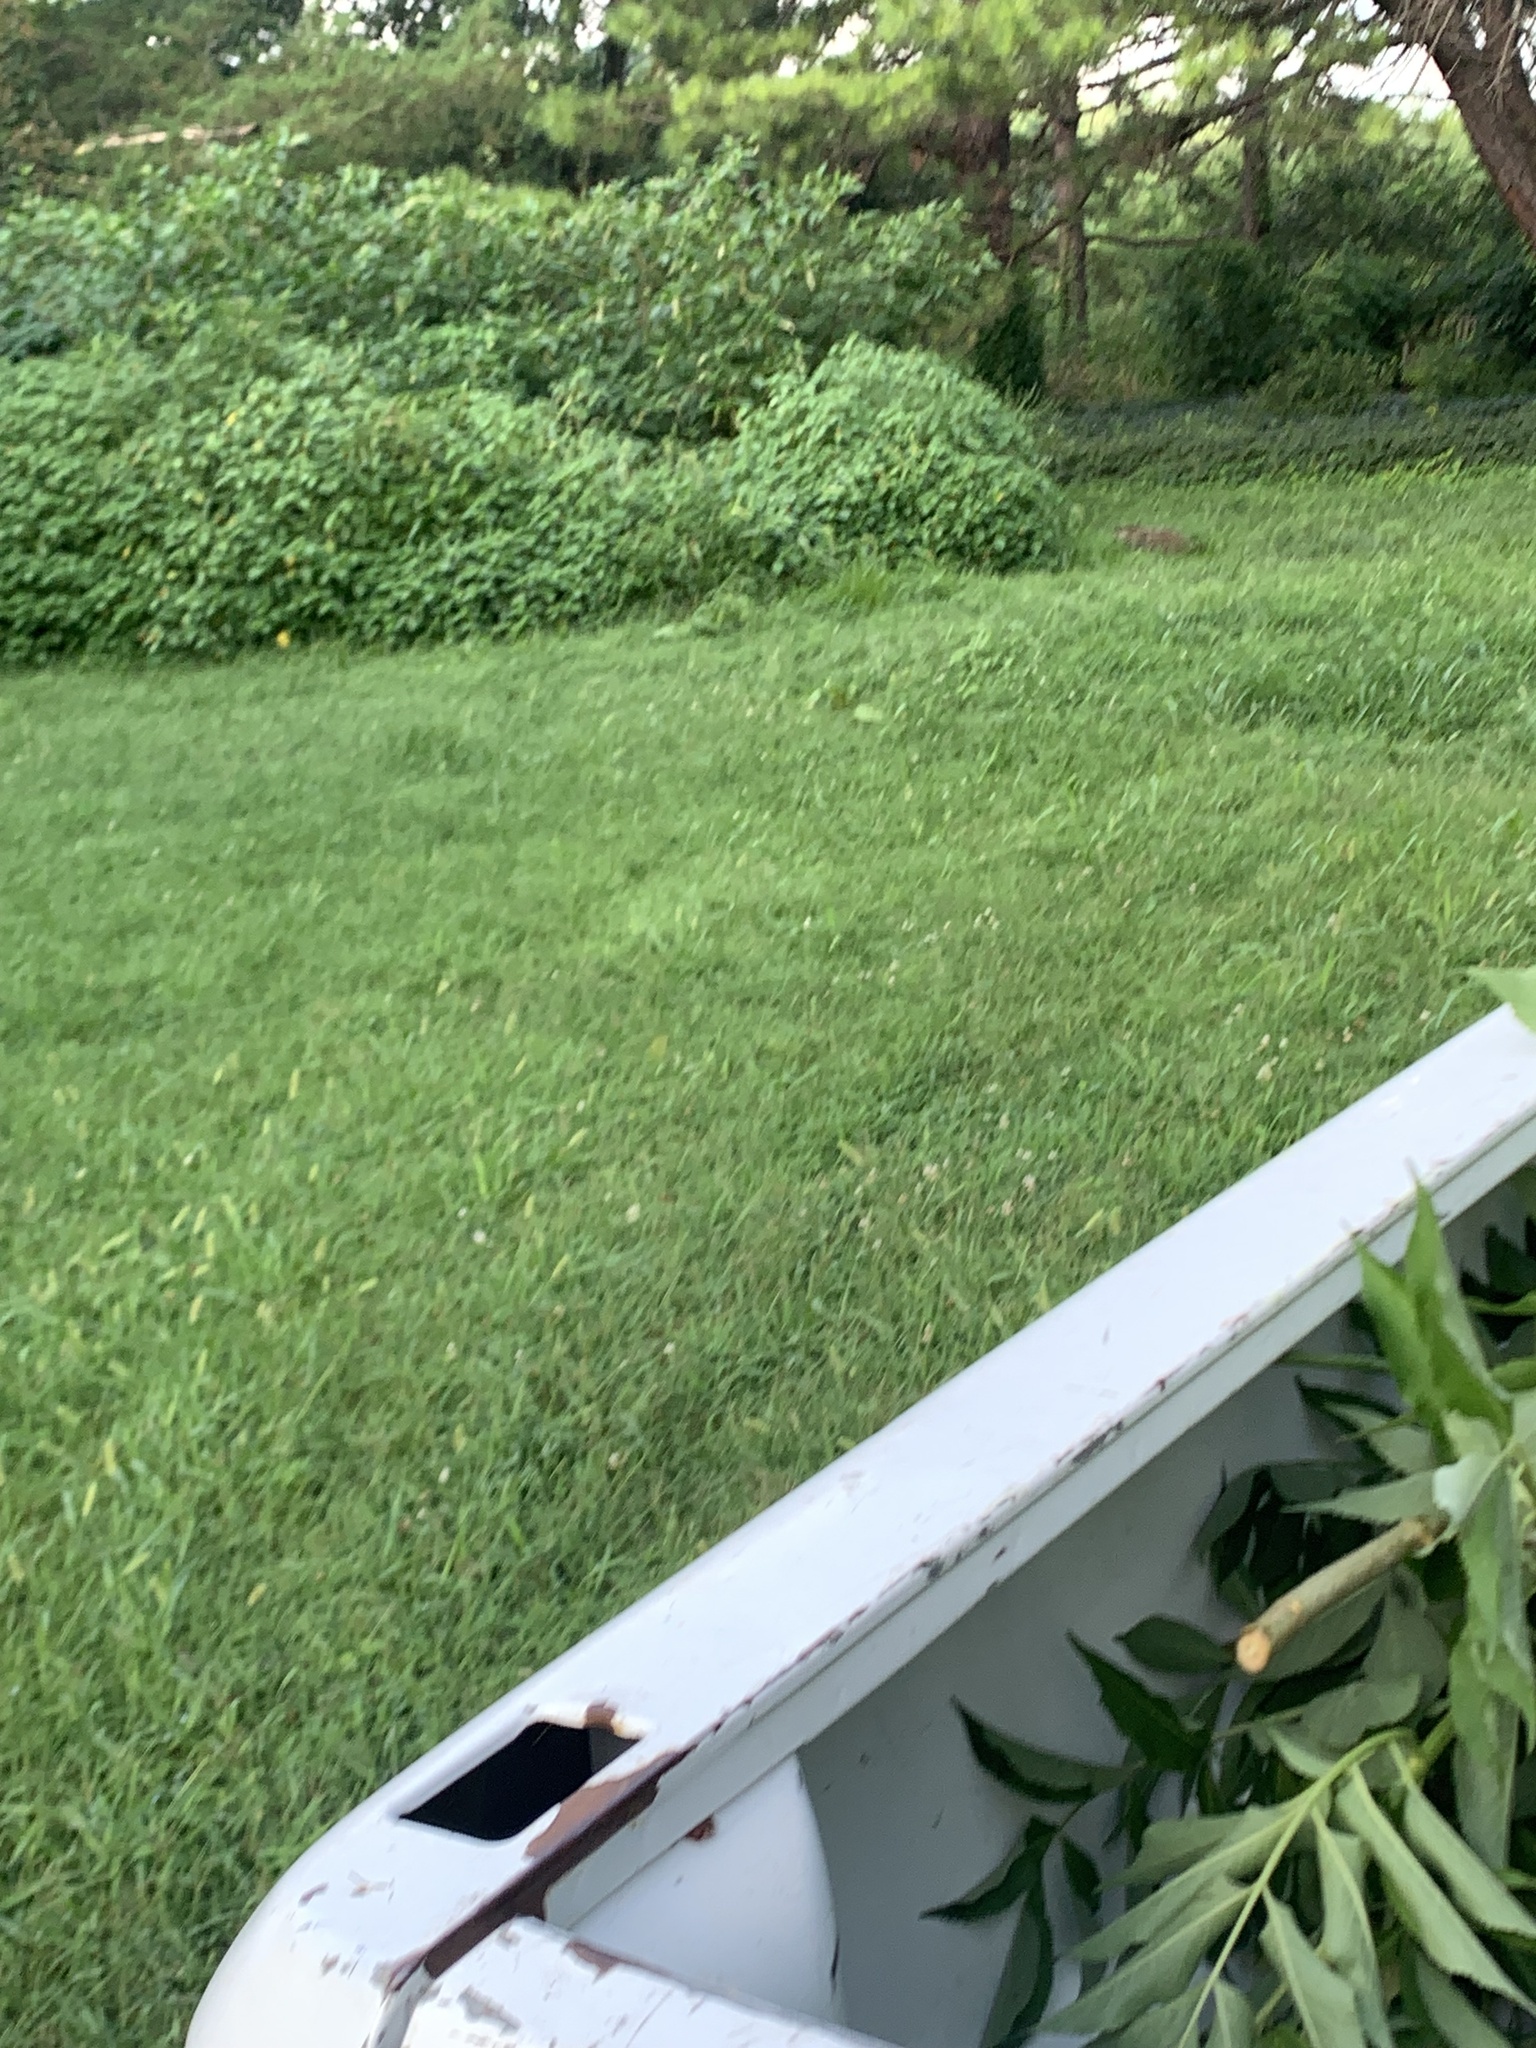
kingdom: Animalia
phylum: Chordata
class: Mammalia
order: Rodentia
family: Sciuridae
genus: Marmota
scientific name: Marmota monax
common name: Groundhog
